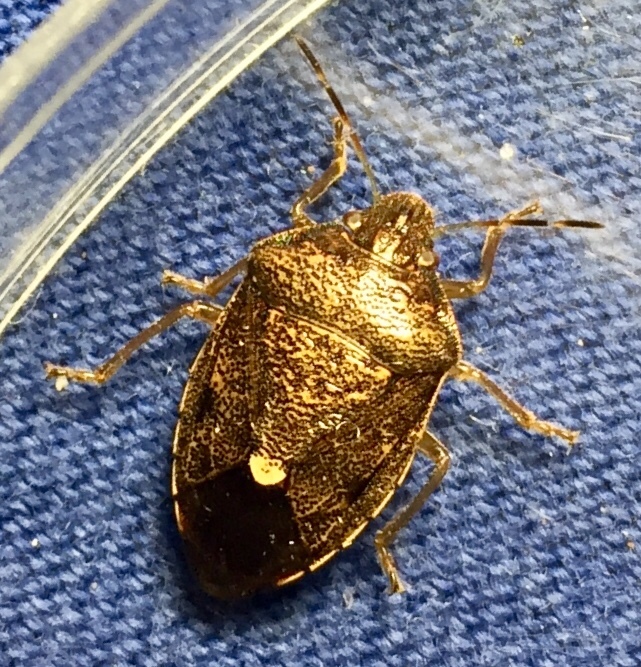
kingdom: Animalia
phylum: Arthropoda
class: Insecta
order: Hemiptera
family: Pentatomidae
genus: Banasa
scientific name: Banasa sordida
